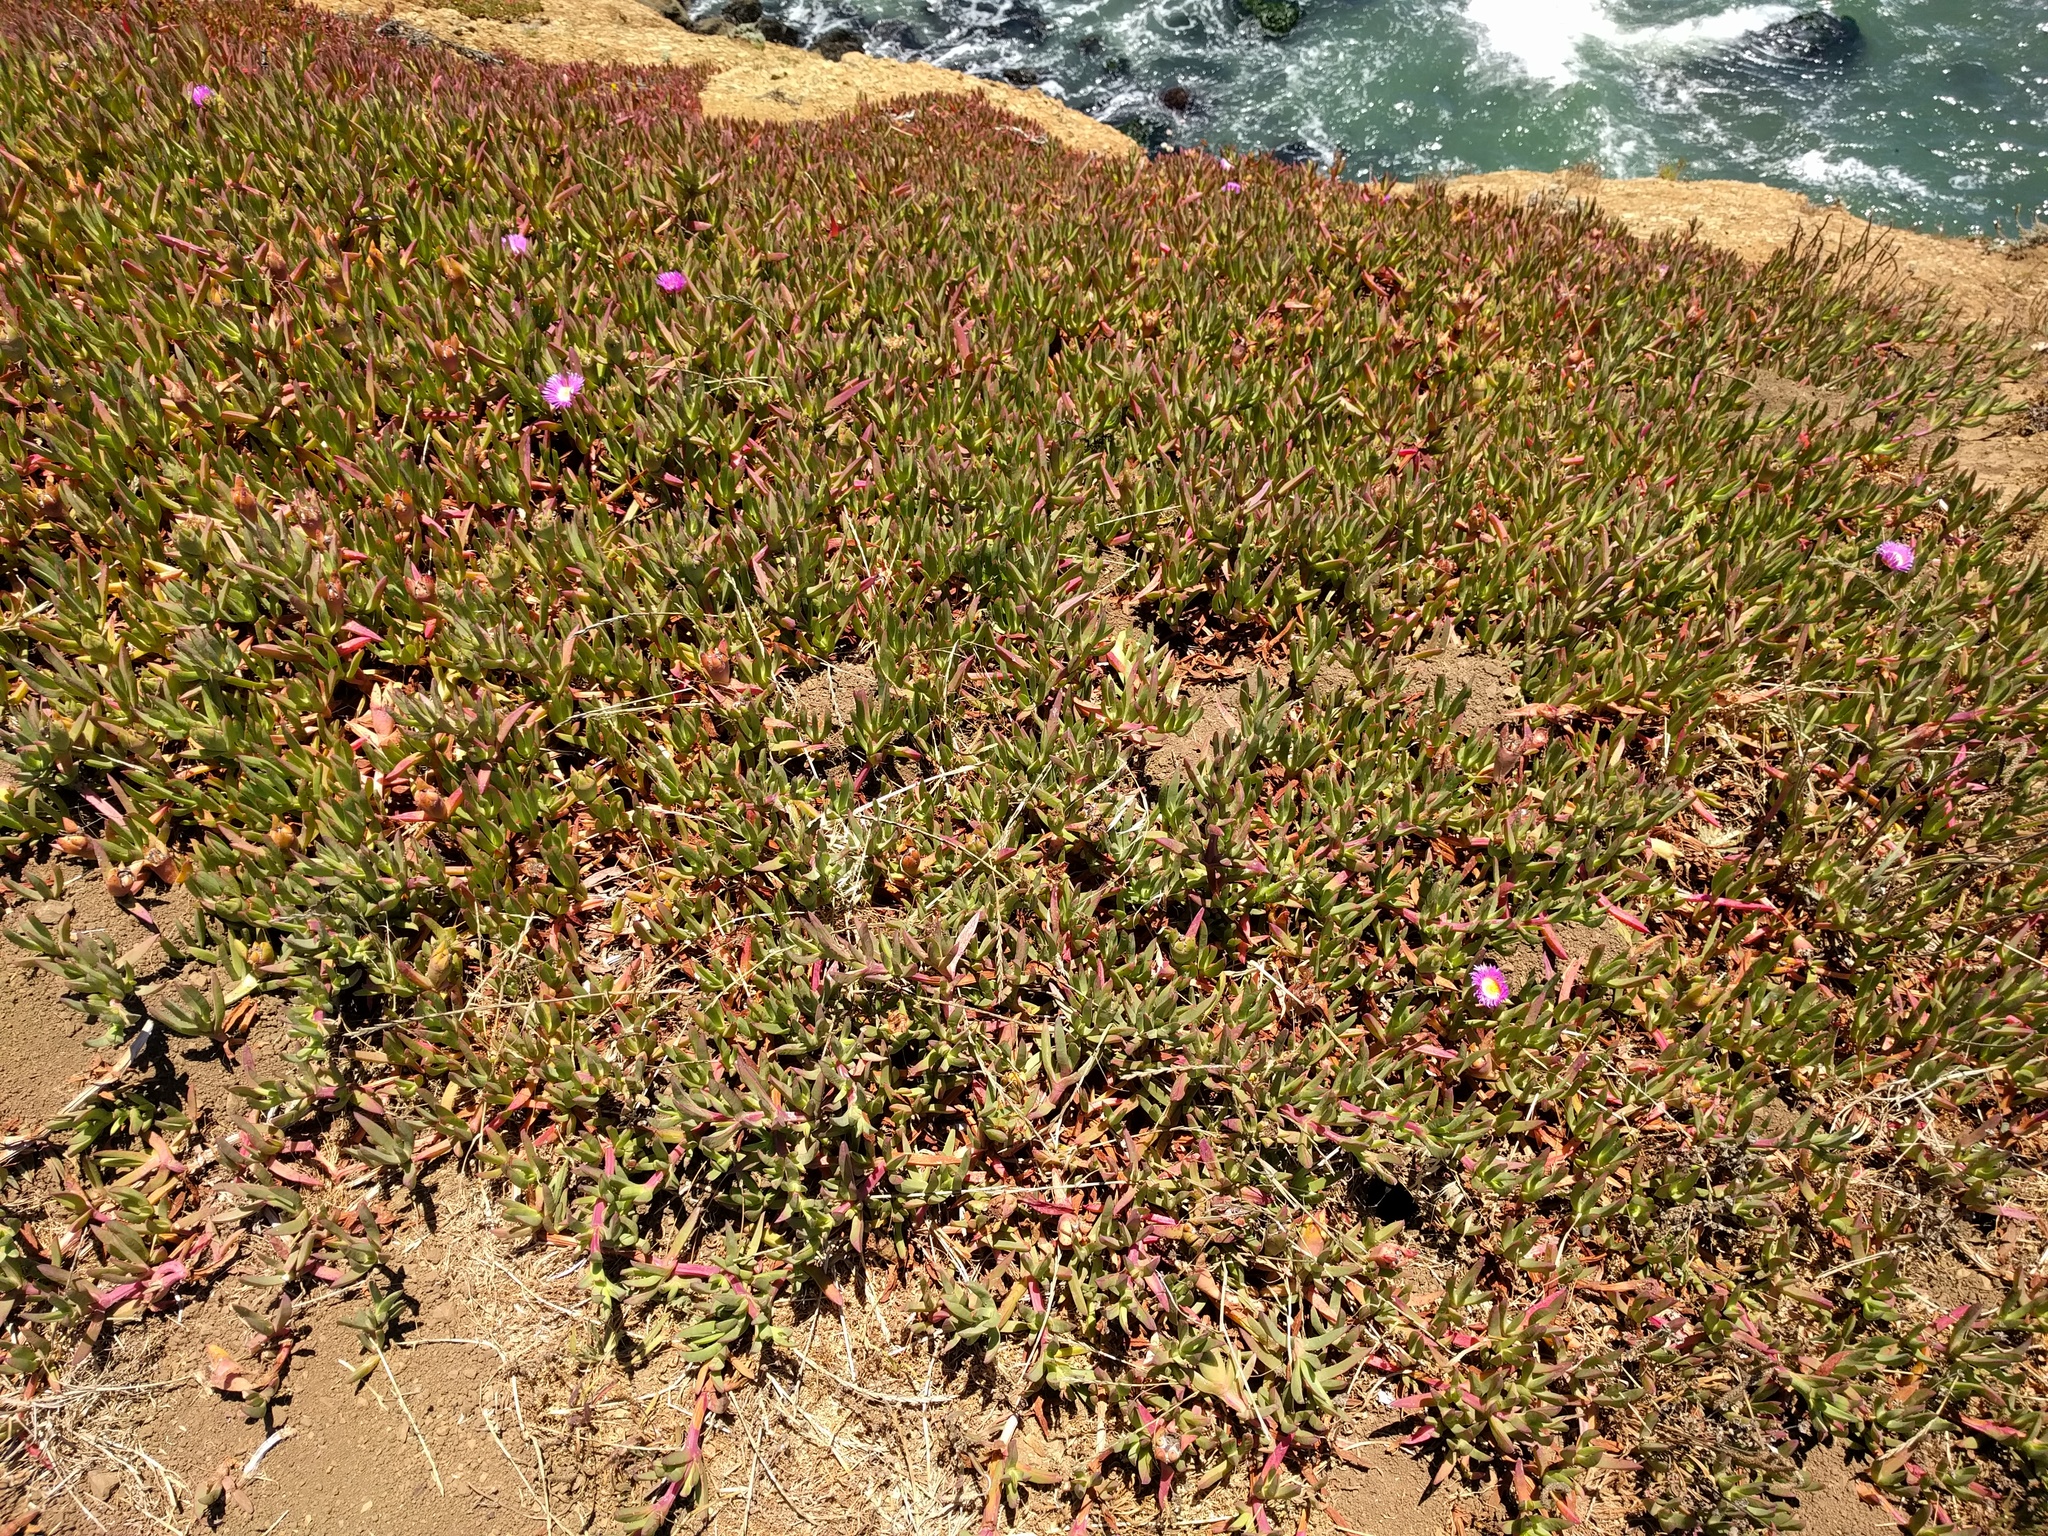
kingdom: Plantae
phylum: Tracheophyta
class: Magnoliopsida
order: Caryophyllales
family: Aizoaceae
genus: Carpobrotus
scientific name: Carpobrotus chilensis
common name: Sea fig
